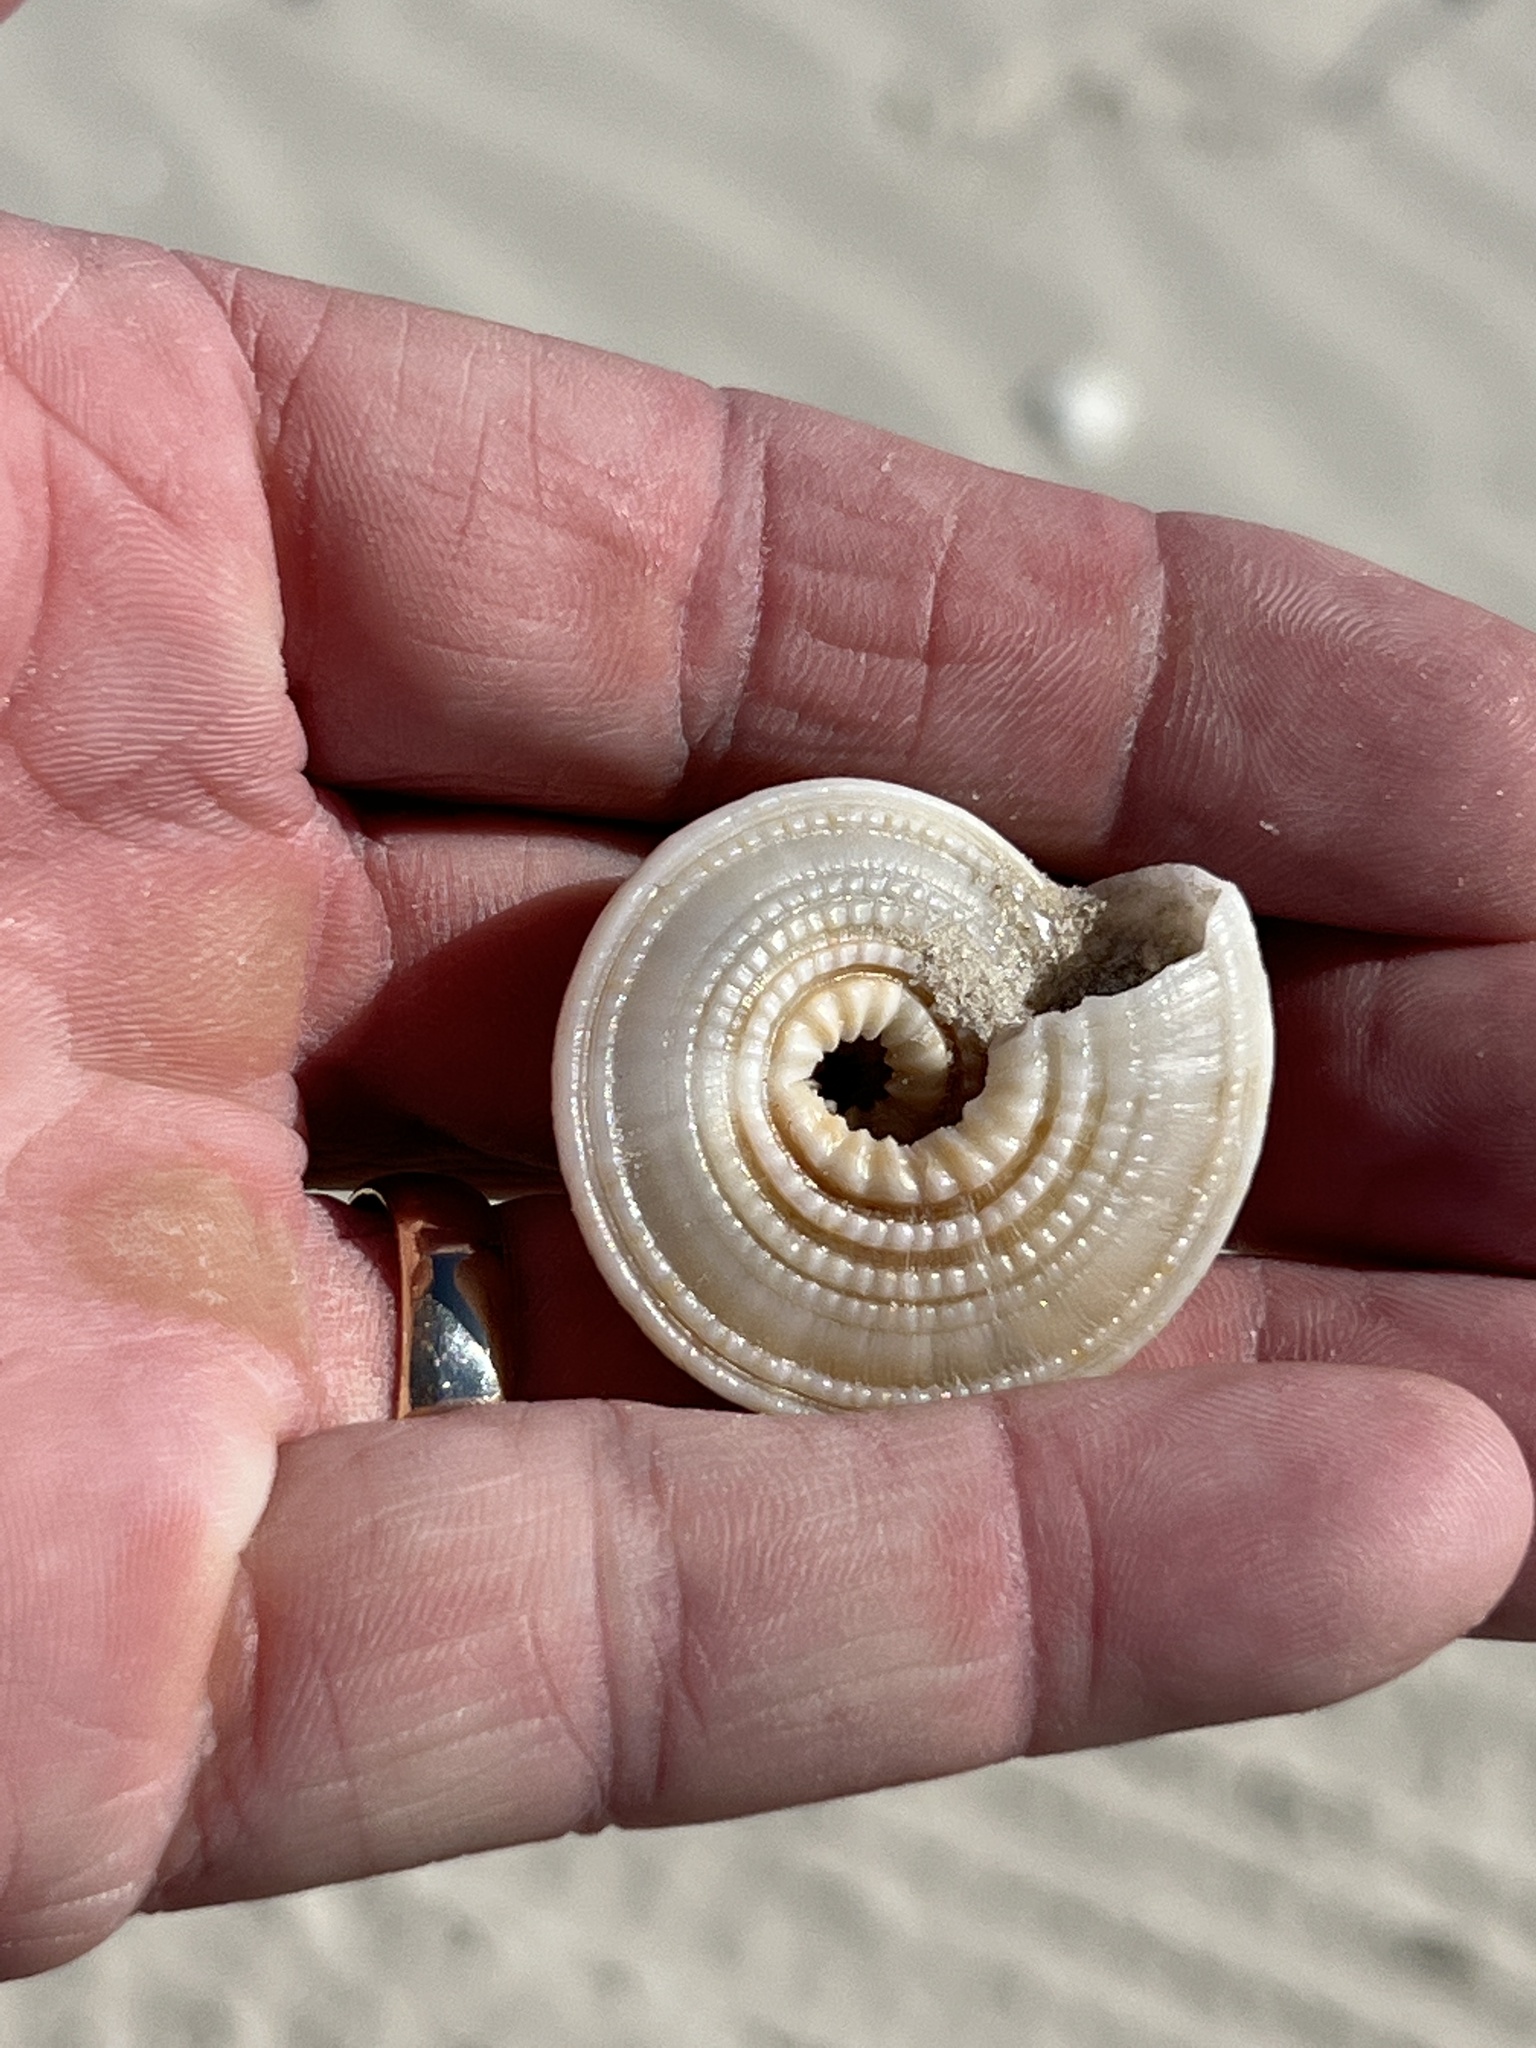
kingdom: Animalia
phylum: Mollusca
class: Gastropoda
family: Architectonicidae
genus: Architectonica
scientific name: Architectonica nobilis
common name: Common sundial
